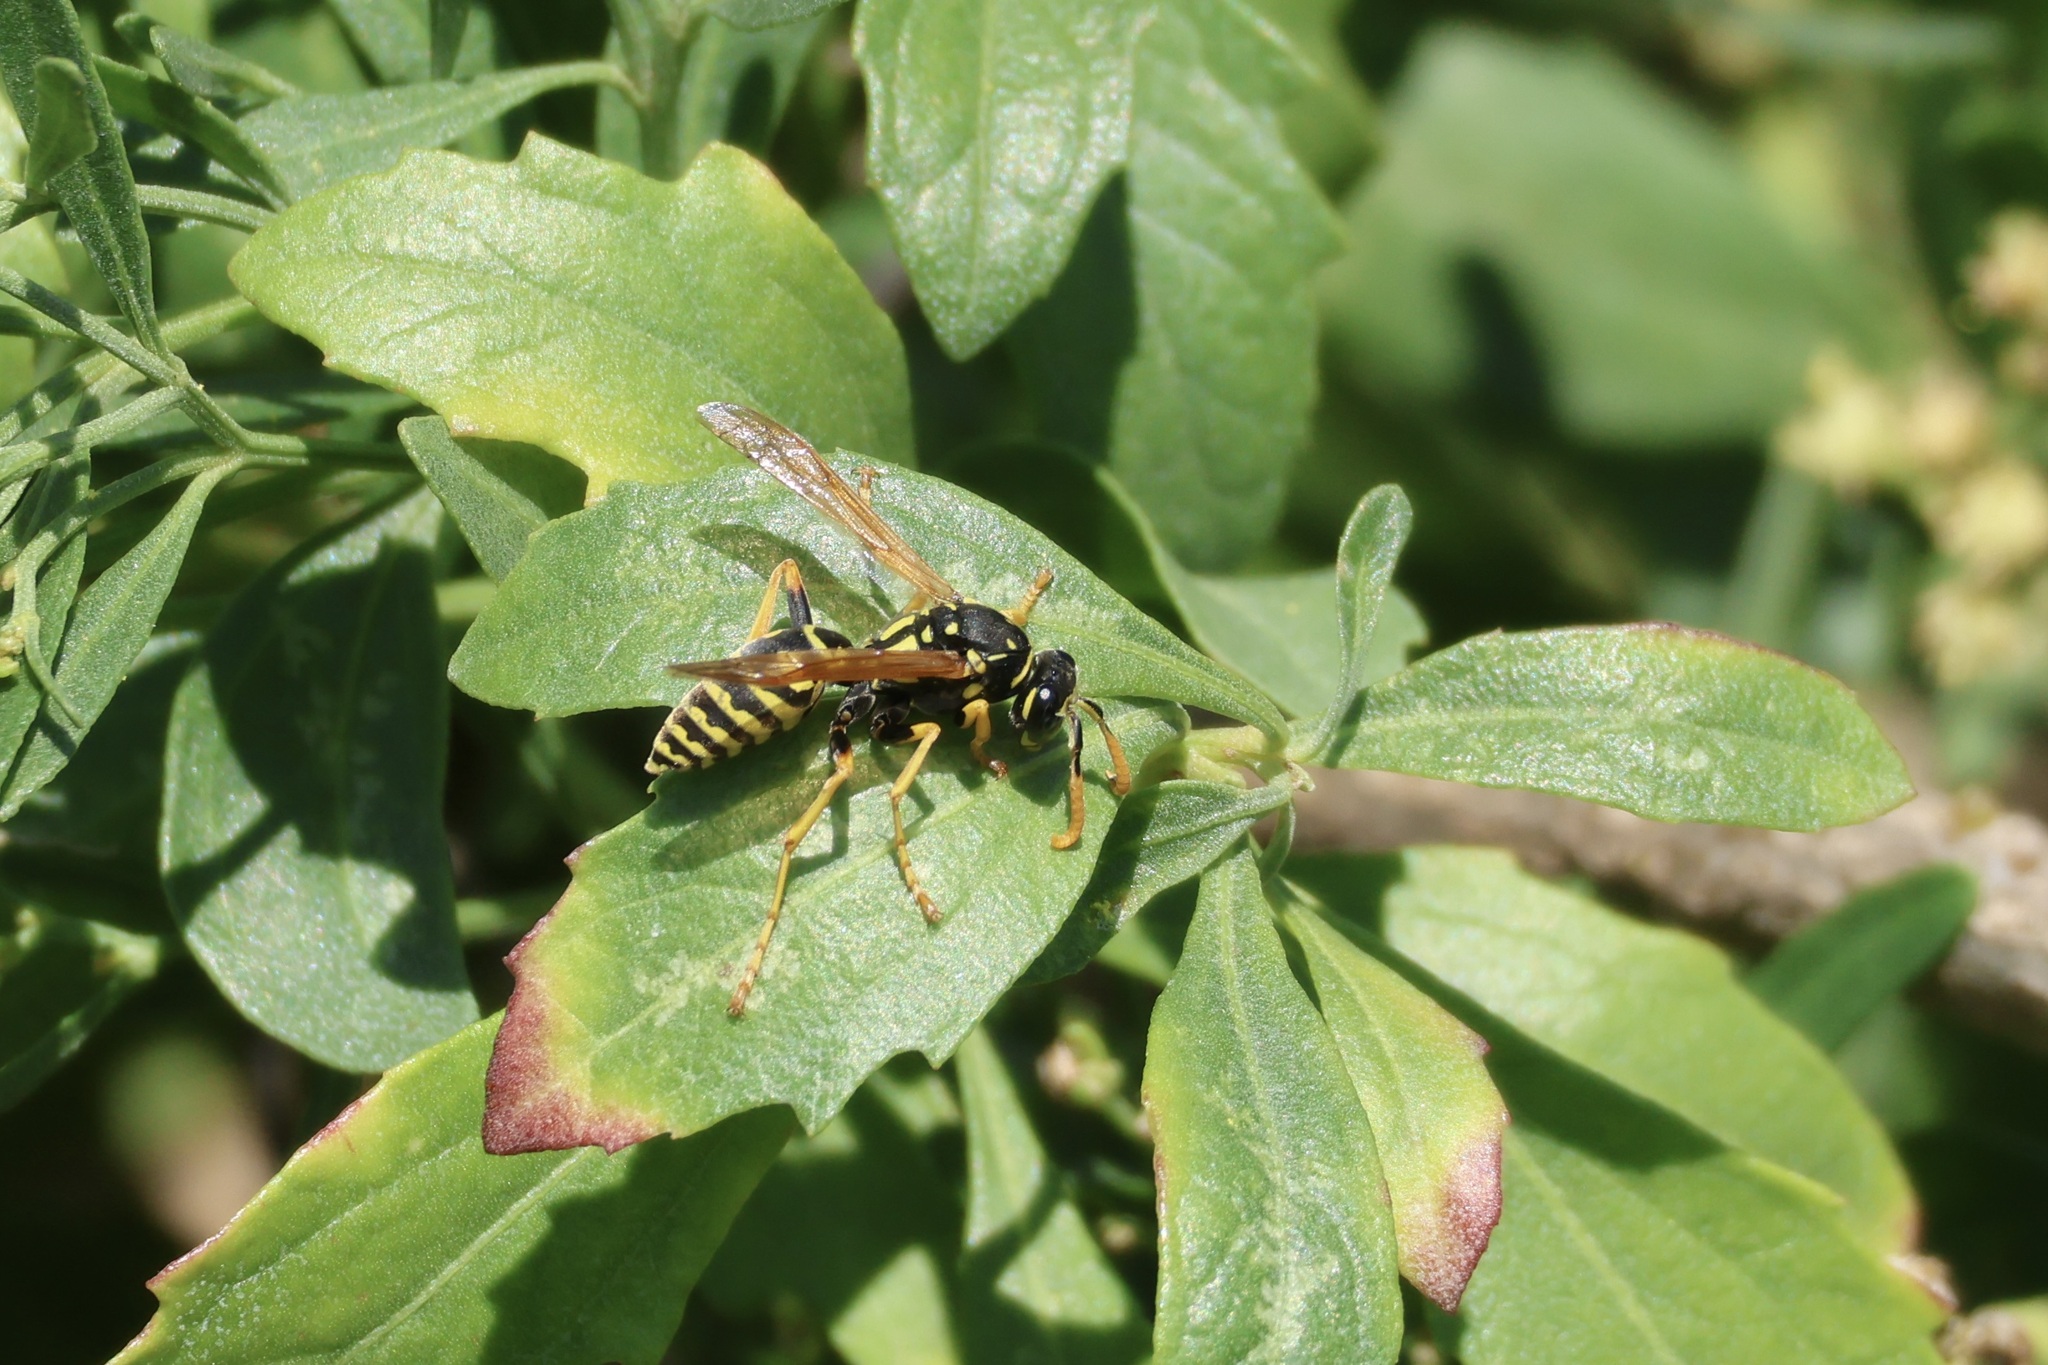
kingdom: Animalia
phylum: Arthropoda
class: Insecta
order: Hymenoptera
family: Eumenidae
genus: Polistes
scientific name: Polistes dominula
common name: Paper wasp
